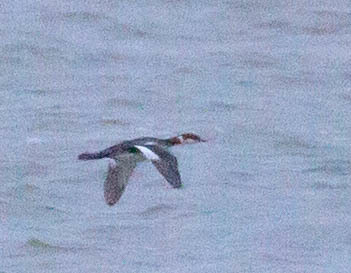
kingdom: Animalia
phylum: Chordata
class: Aves
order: Podicipediformes
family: Podicipedidae
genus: Podiceps
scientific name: Podiceps auritus
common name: Horned grebe
